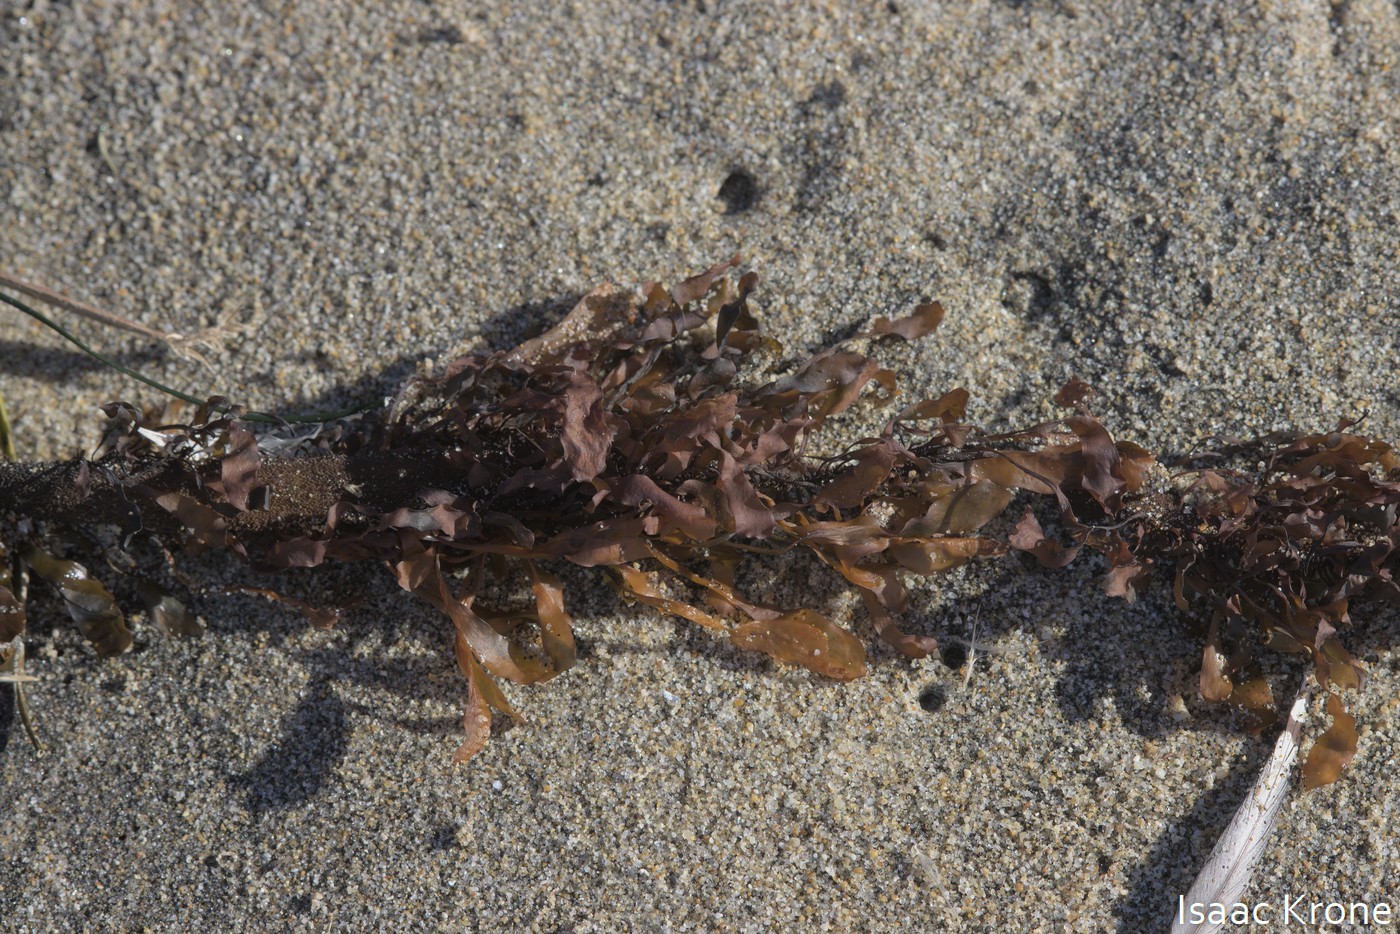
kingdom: Chromista
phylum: Ochrophyta
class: Phaeophyceae
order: Laminariales
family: Lessoniaceae
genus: Egregia
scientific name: Egregia menziesii
